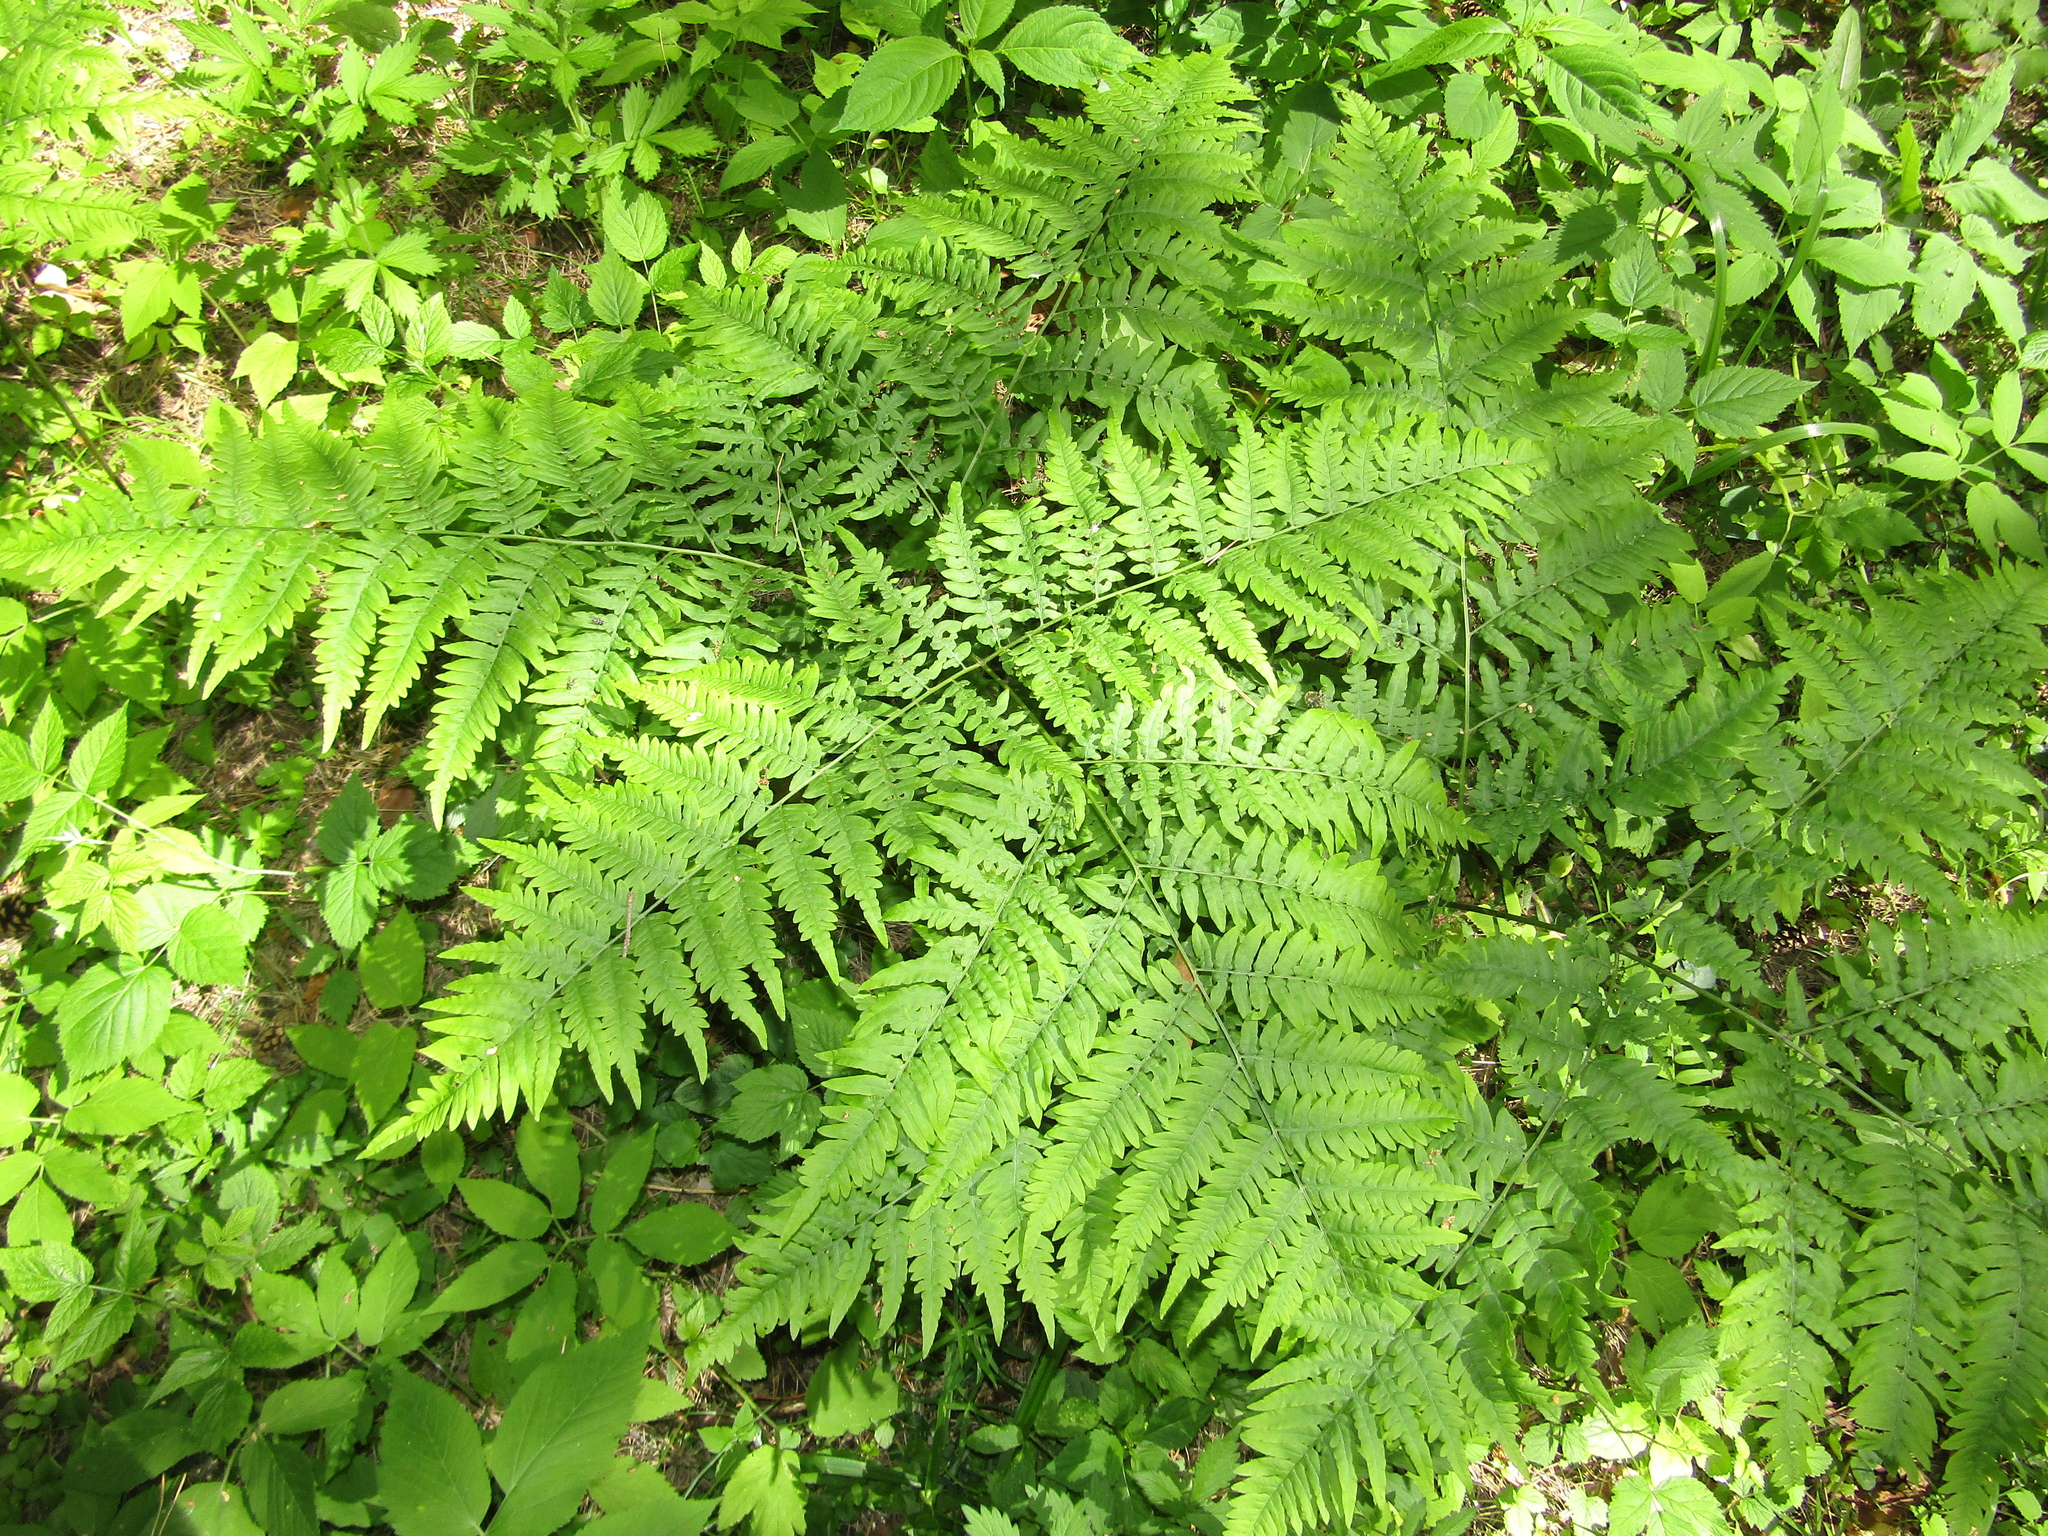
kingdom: Plantae
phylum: Tracheophyta
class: Polypodiopsida
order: Polypodiales
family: Dennstaedtiaceae
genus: Pteridium
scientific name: Pteridium aquilinum
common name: Bracken
